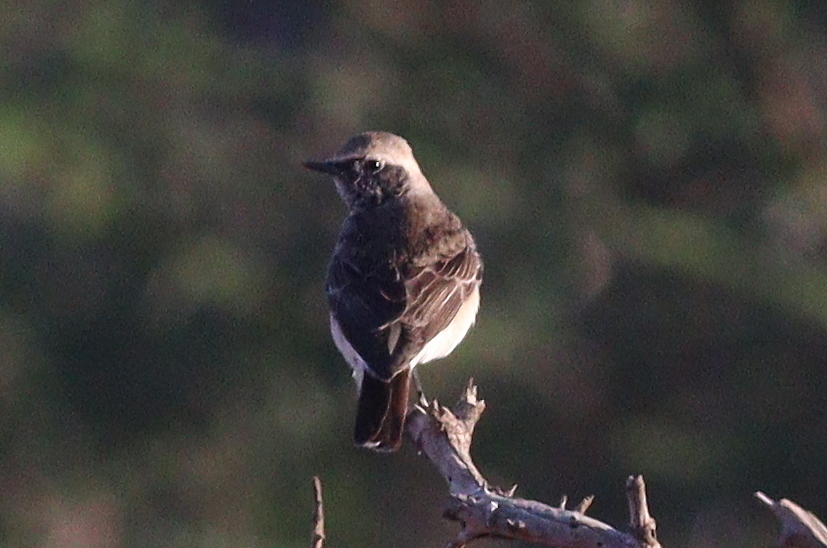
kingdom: Animalia
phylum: Chordata
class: Aves
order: Passeriformes
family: Muscicapidae
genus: Oenanthe
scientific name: Oenanthe pleschanka
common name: Pied wheatear
